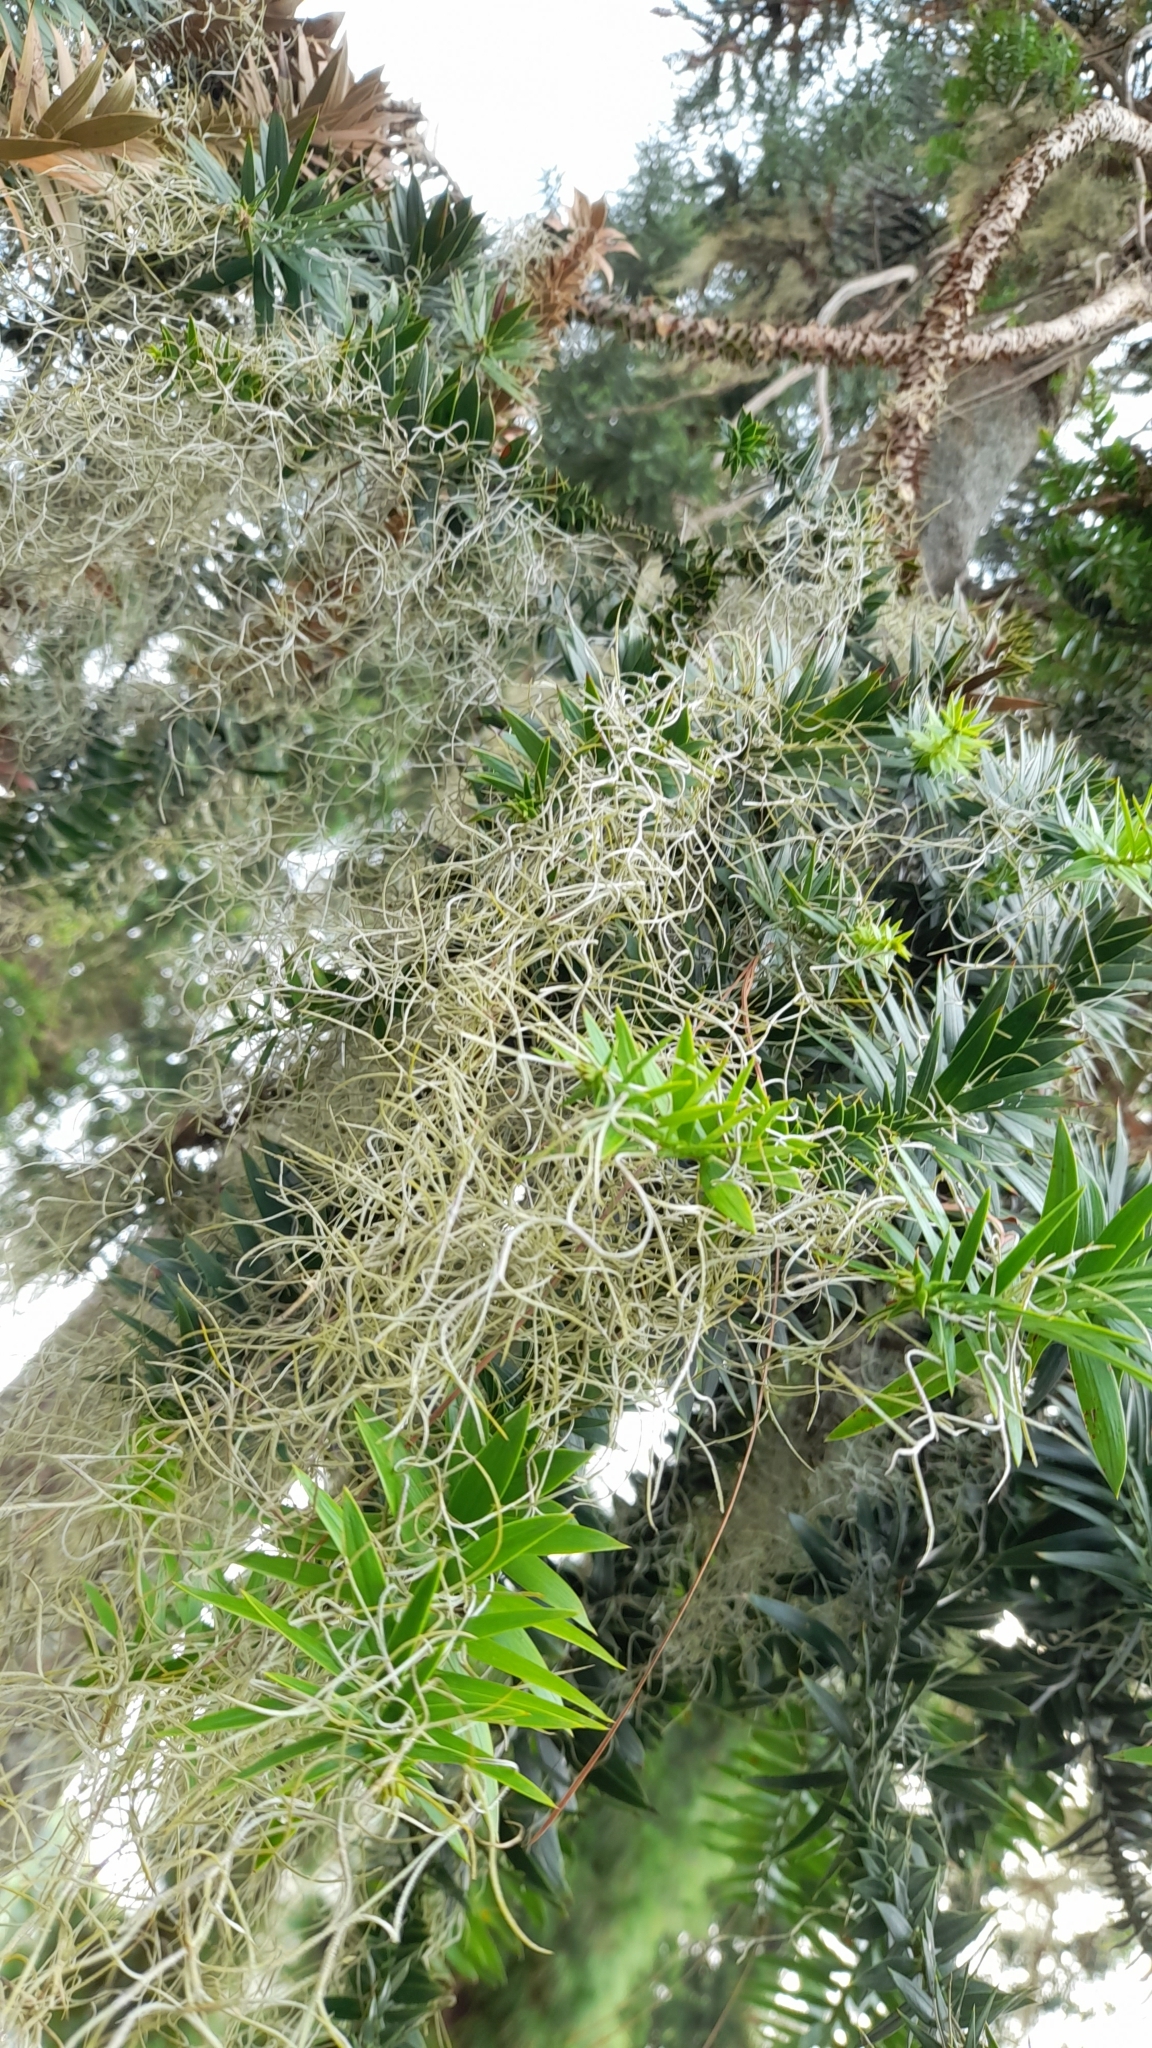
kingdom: Plantae
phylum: Tracheophyta
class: Liliopsida
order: Poales
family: Bromeliaceae
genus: Tillandsia
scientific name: Tillandsia usneoides
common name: Spanish moss
